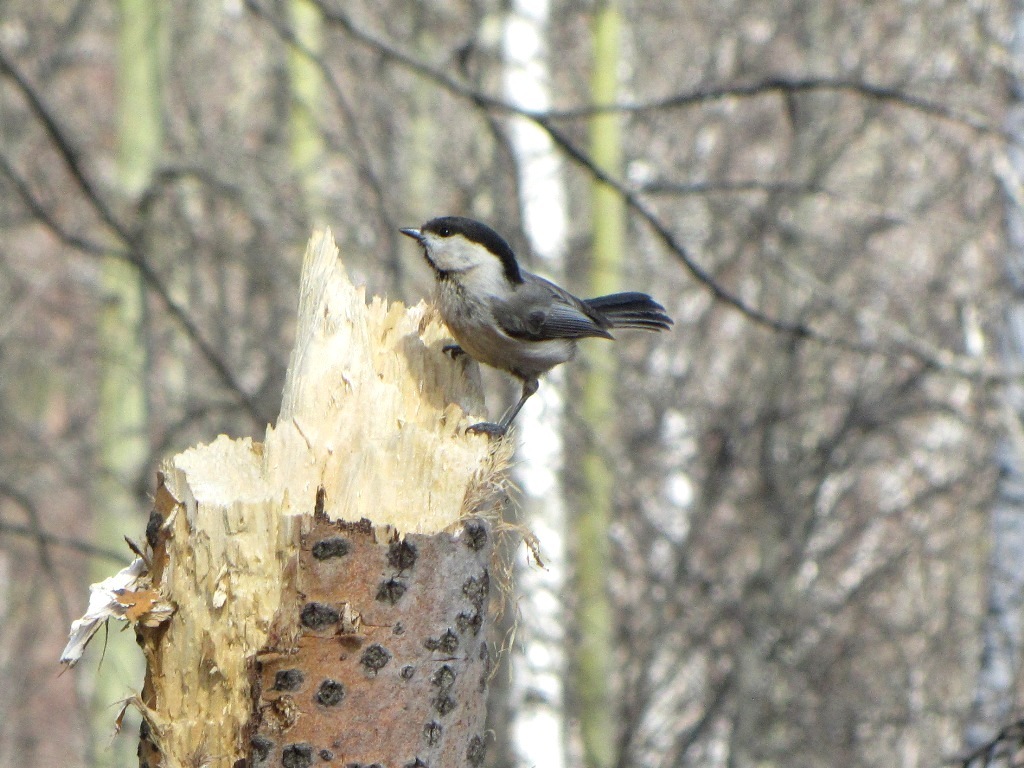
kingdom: Animalia
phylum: Chordata
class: Aves
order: Passeriformes
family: Paridae
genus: Poecile
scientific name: Poecile montanus
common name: Willow tit
